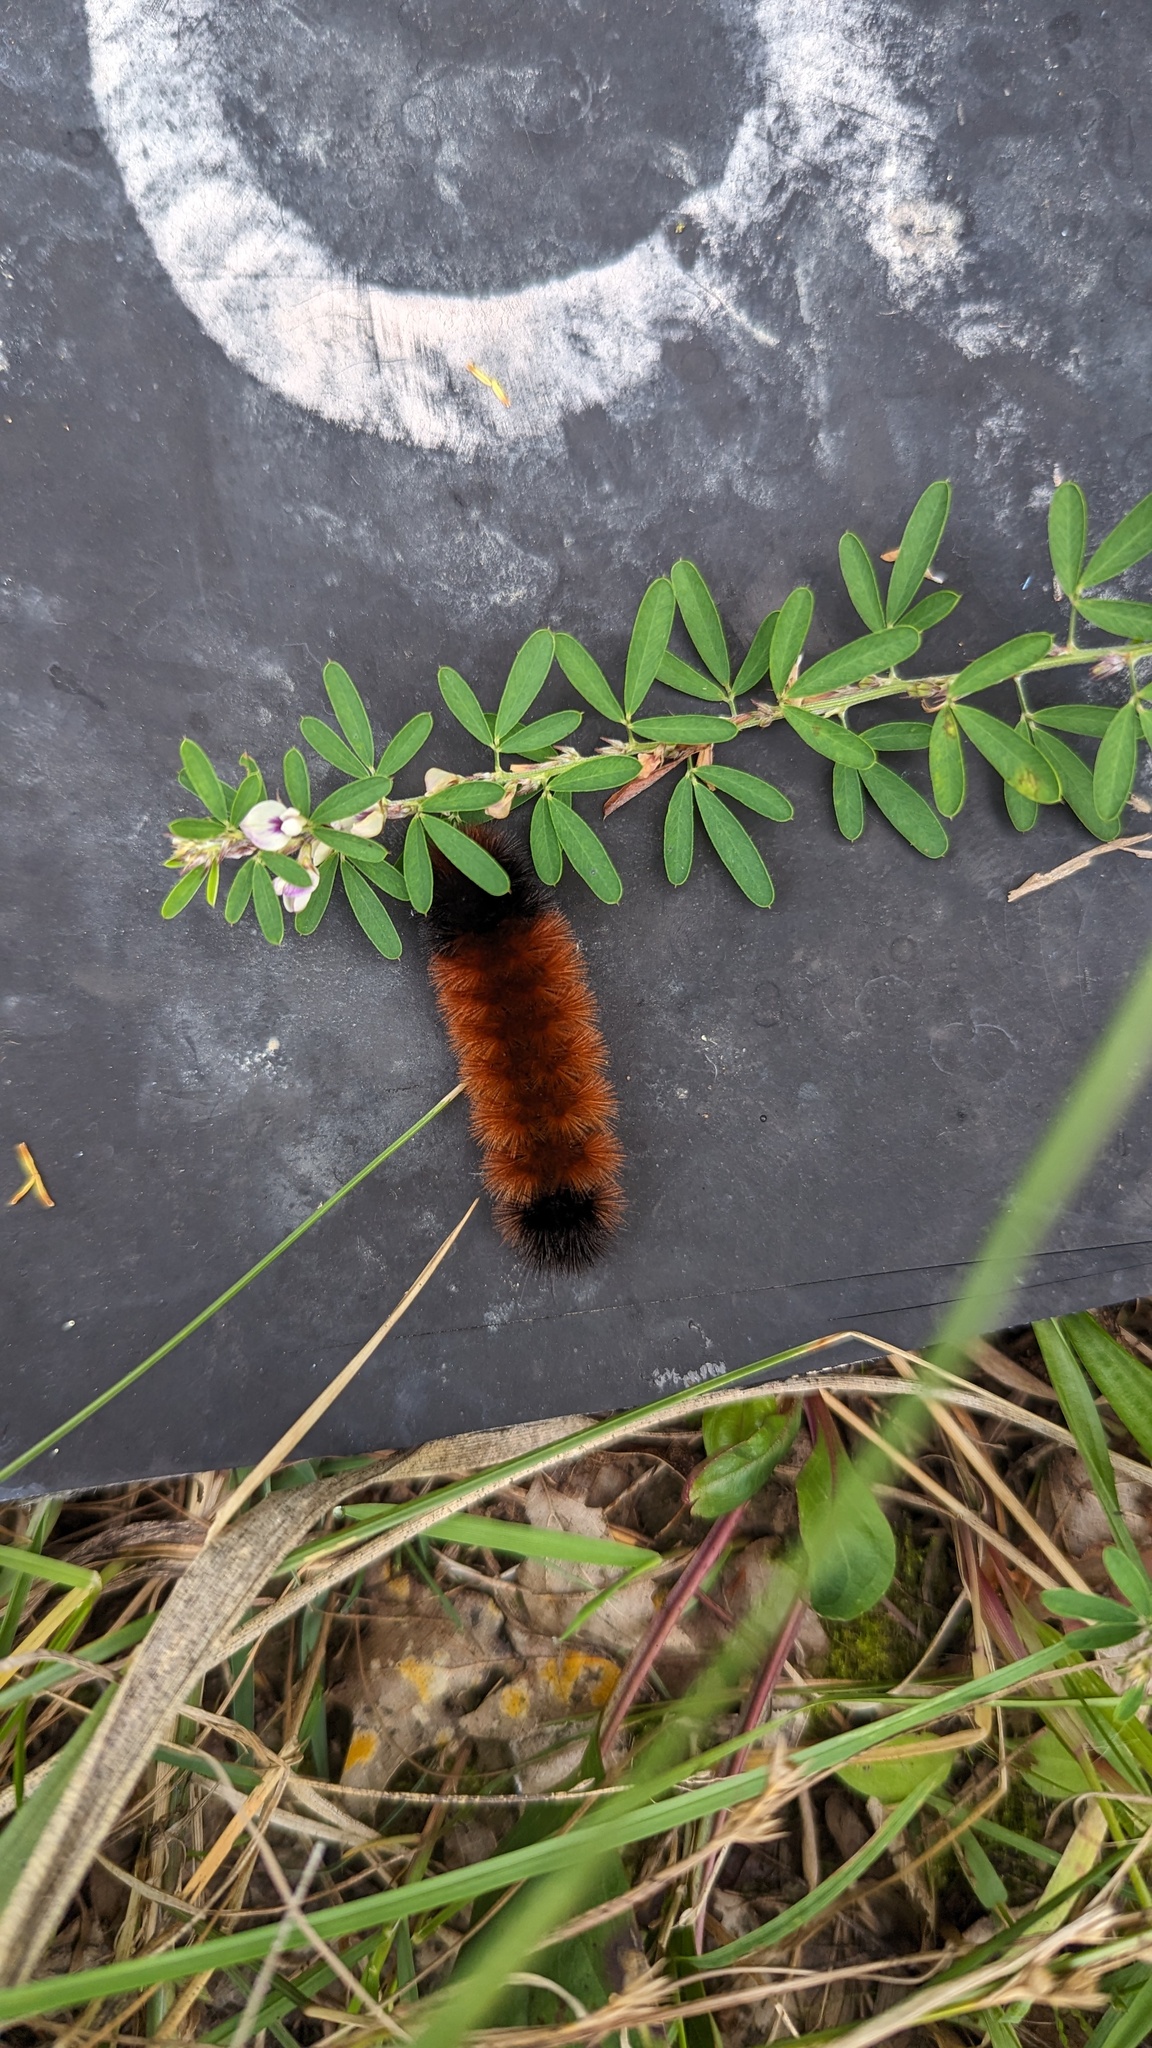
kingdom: Animalia
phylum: Arthropoda
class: Insecta
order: Lepidoptera
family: Erebidae
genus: Pyrrharctia
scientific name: Pyrrharctia isabella
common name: Isabella tiger moth
